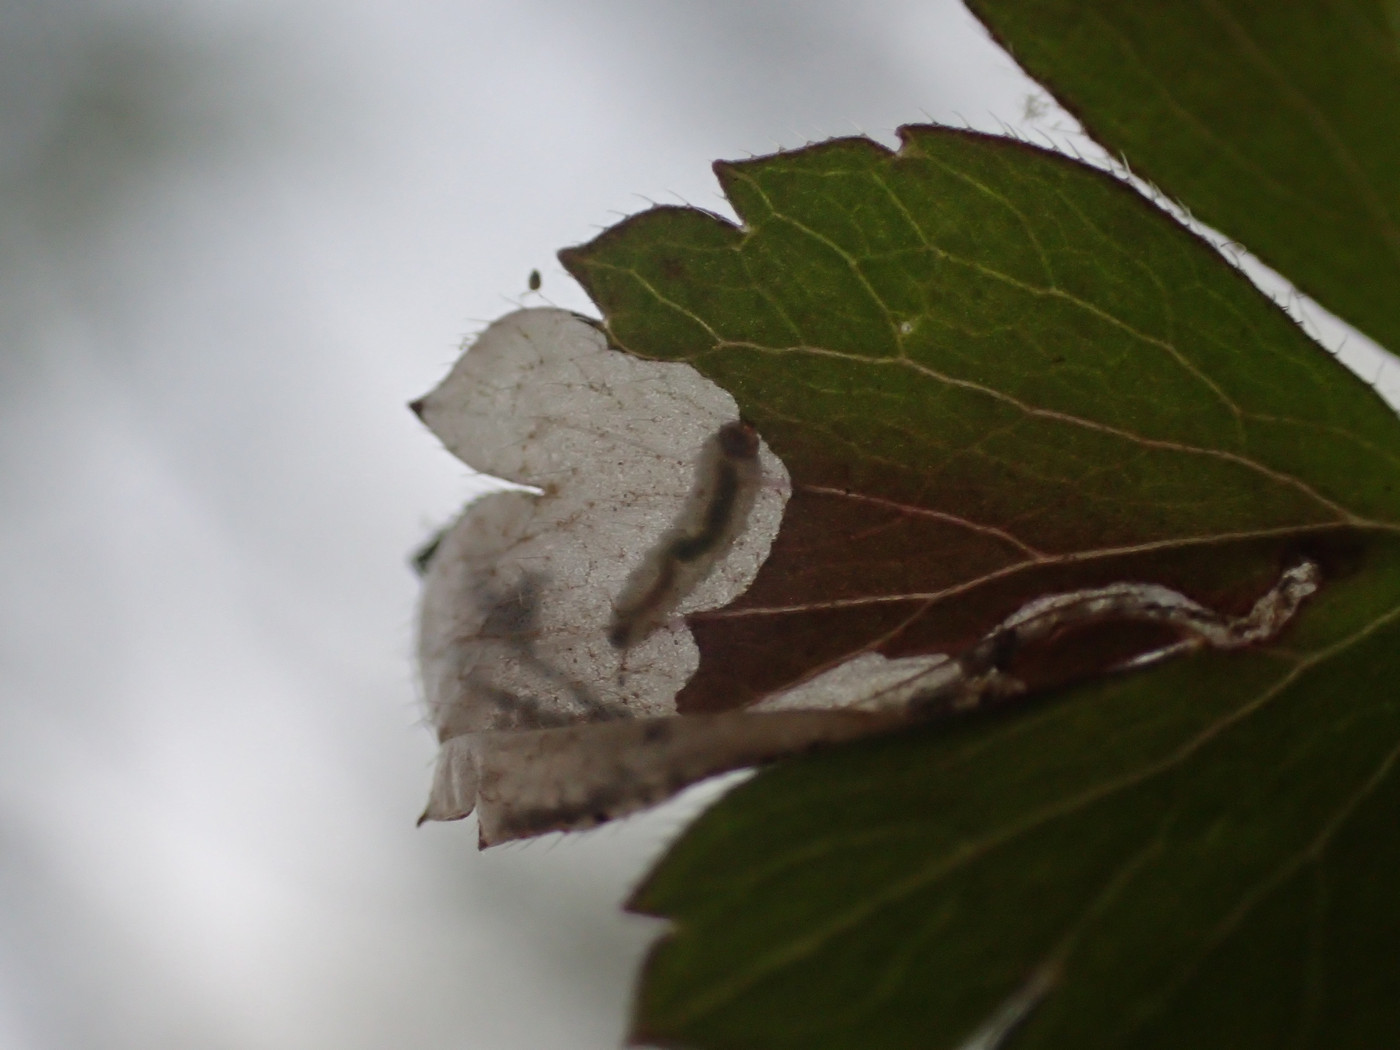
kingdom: Animalia
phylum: Arthropoda
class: Insecta
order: Hymenoptera
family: Tenthredinidae
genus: Pseudodineura
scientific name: Pseudodineura parva
